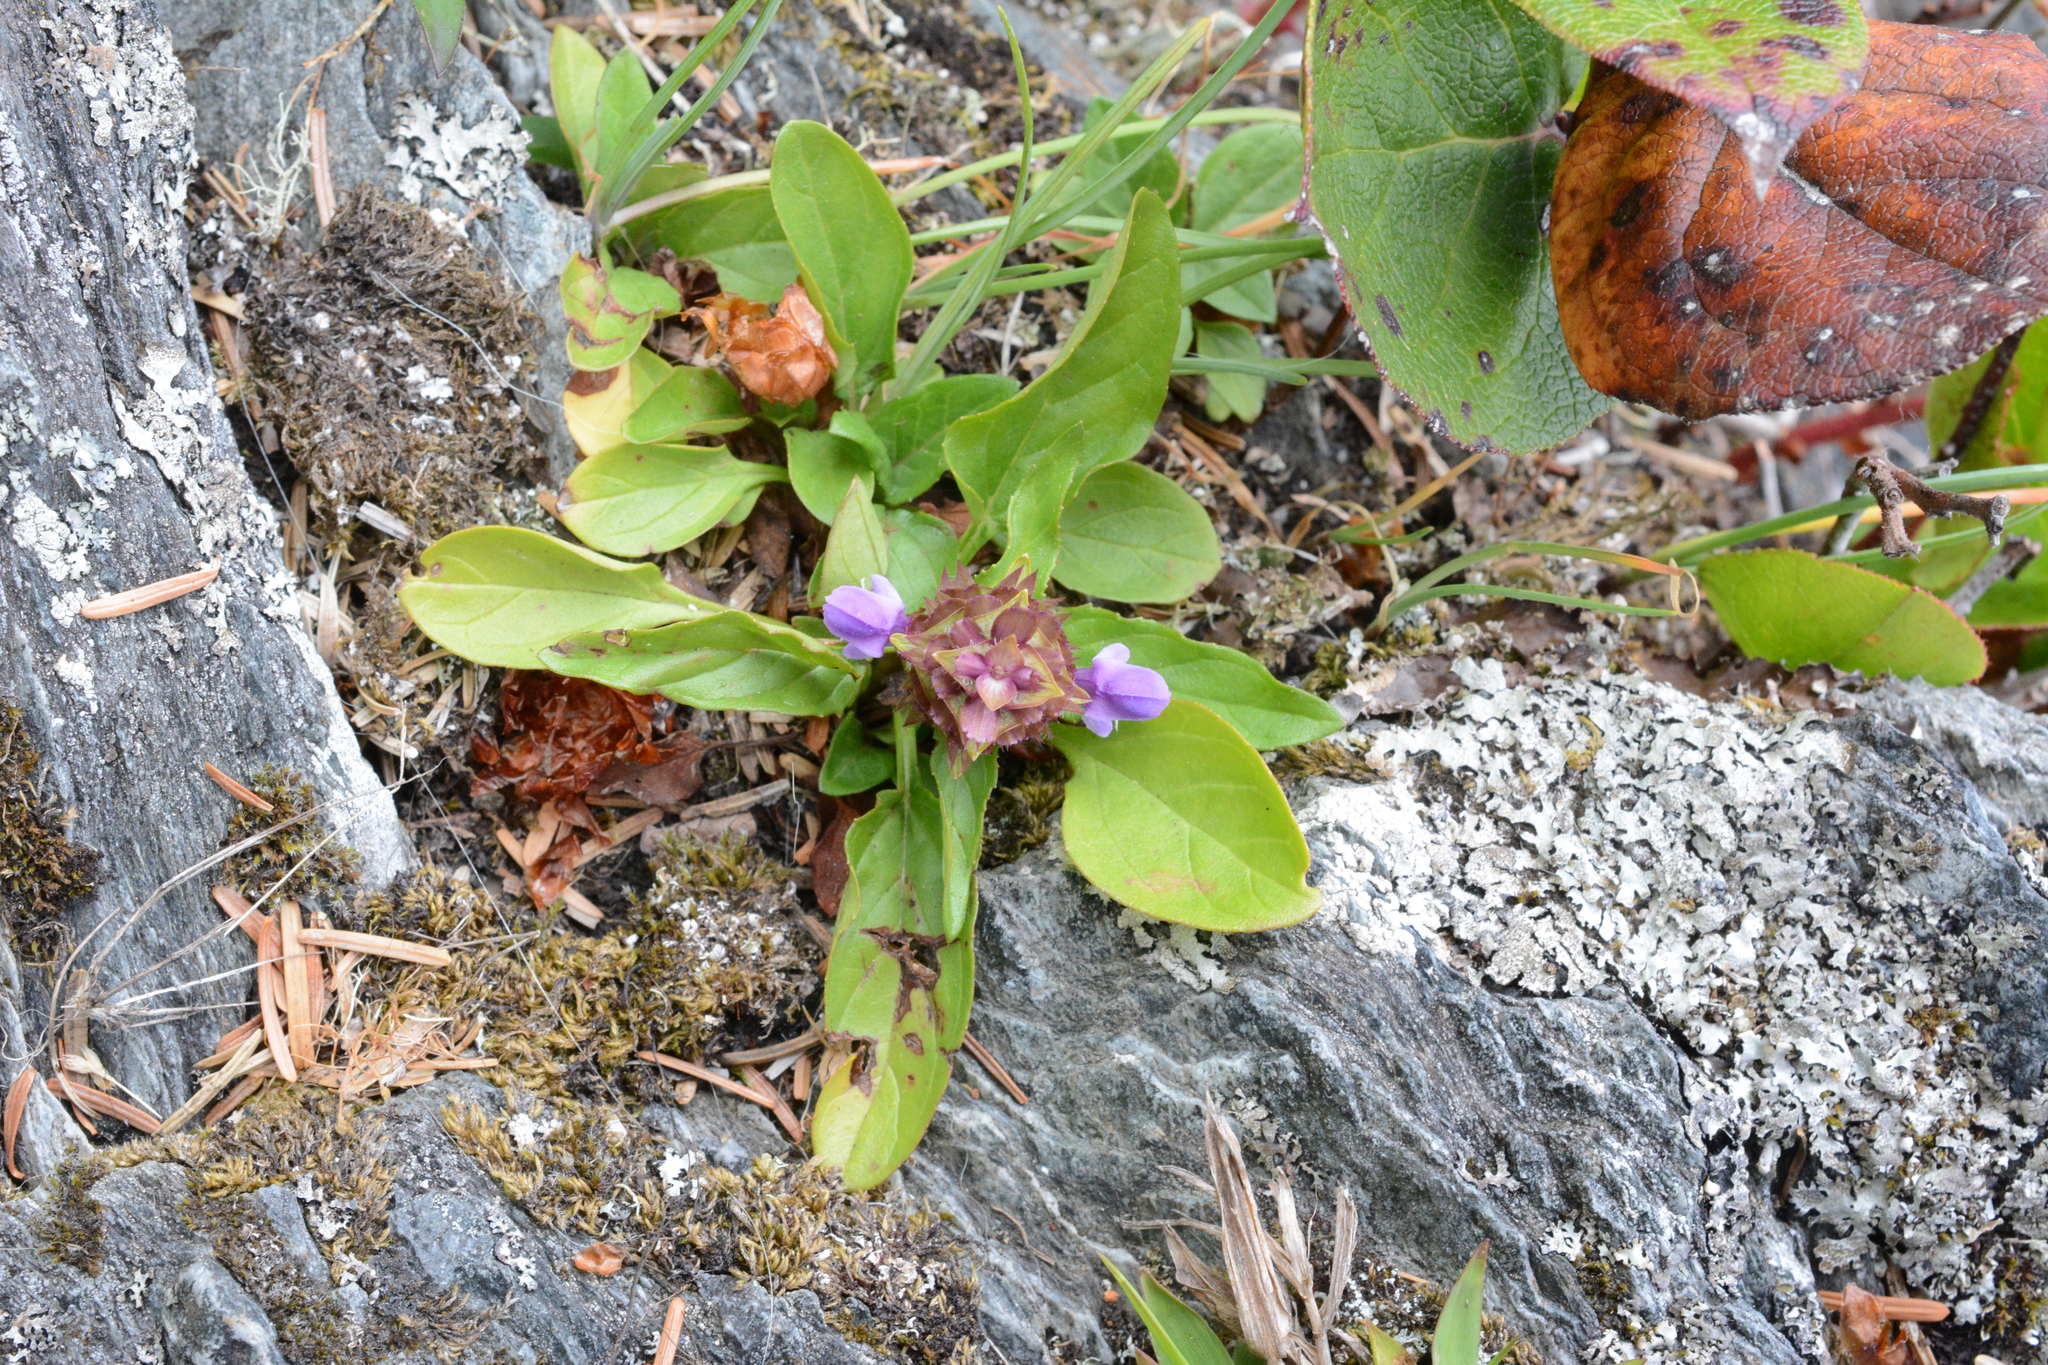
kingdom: Plantae
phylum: Tracheophyta
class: Magnoliopsida
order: Lamiales
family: Lamiaceae
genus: Prunella
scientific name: Prunella vulgaris
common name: Heal-all
